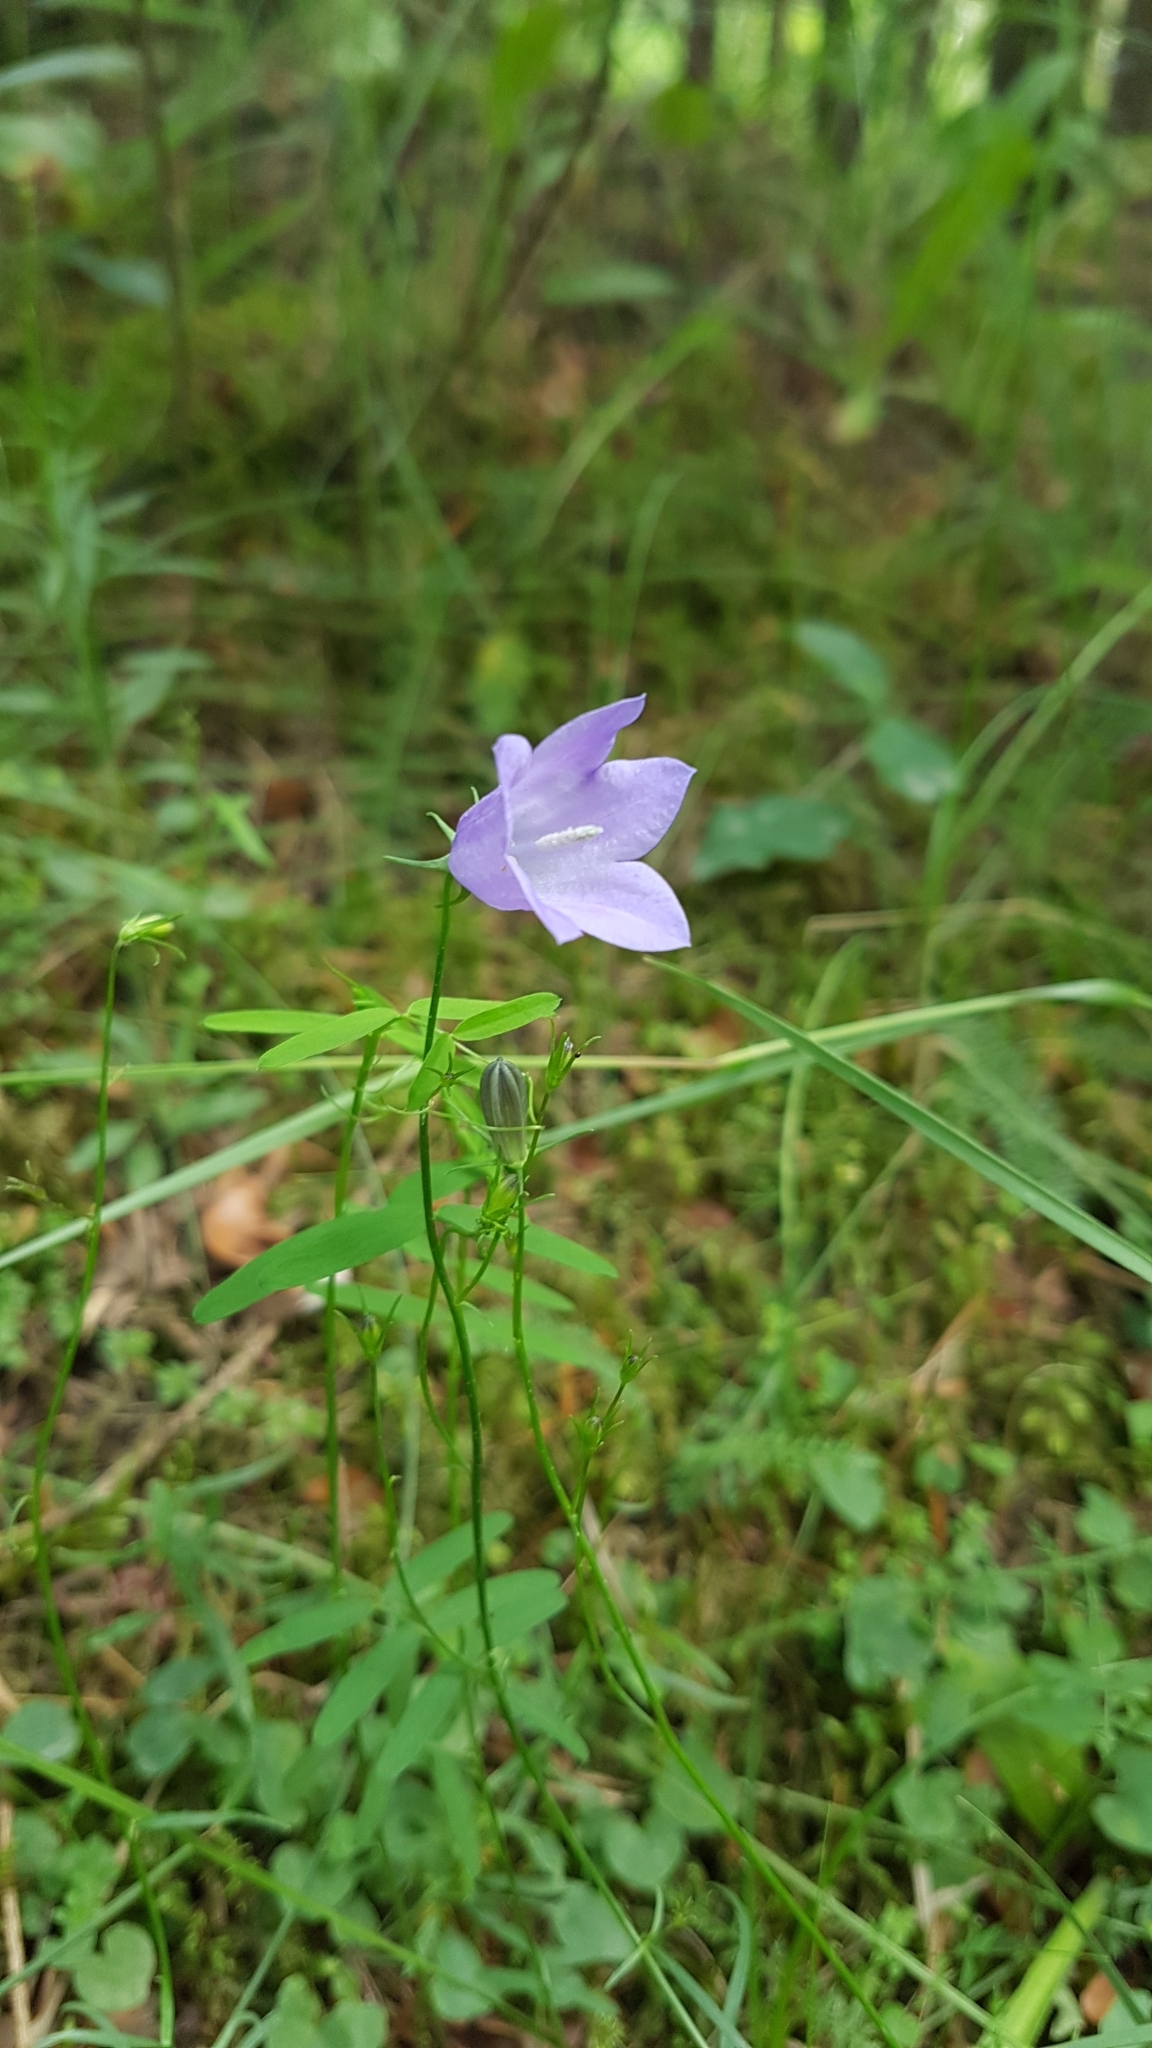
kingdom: Plantae
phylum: Tracheophyta
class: Magnoliopsida
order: Asterales
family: Campanulaceae
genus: Campanula
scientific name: Campanula rotundifolia
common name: Harebell
